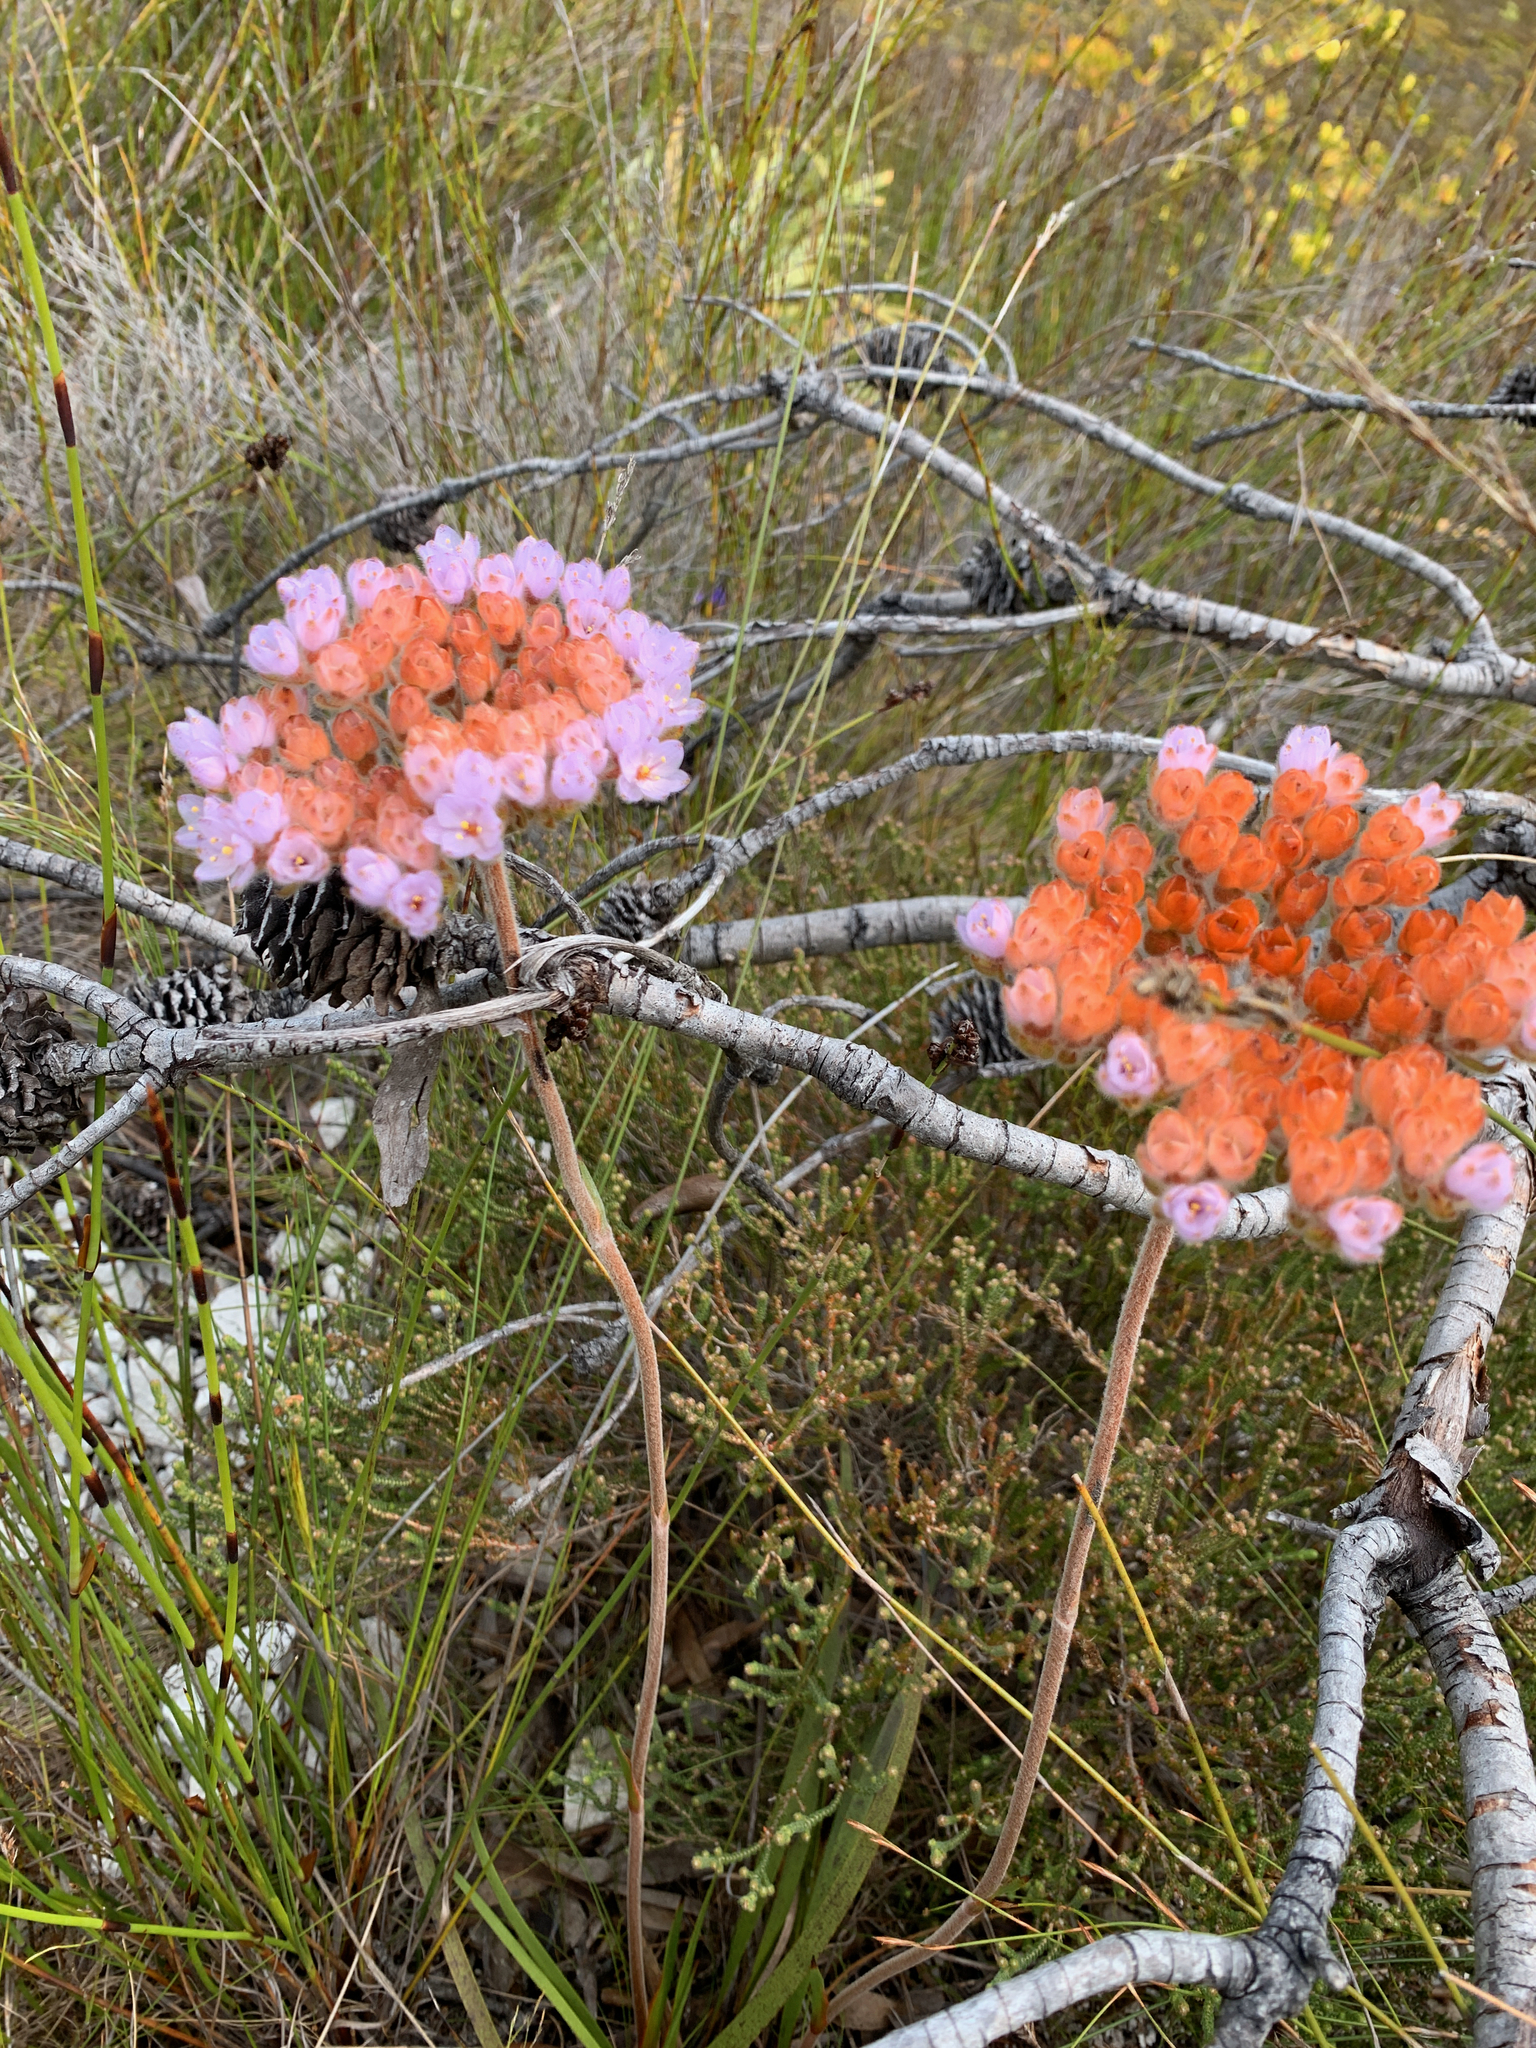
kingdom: Plantae
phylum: Tracheophyta
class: Liliopsida
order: Commelinales
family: Haemodoraceae
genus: Dilatris
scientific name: Dilatris pillansii
